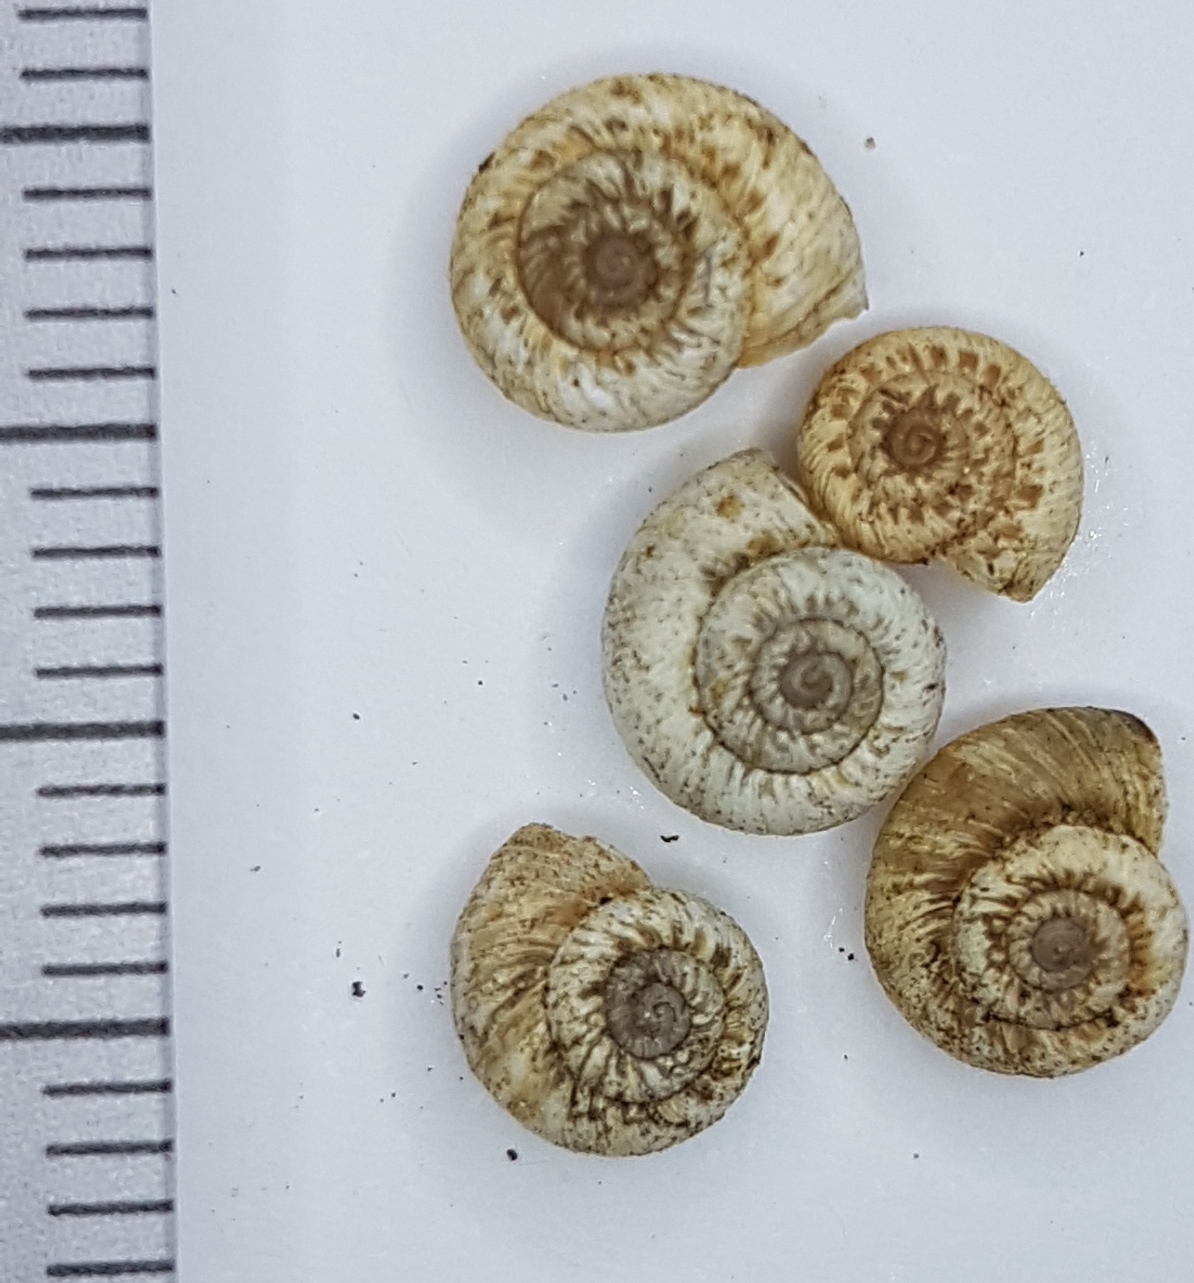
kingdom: Animalia
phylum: Mollusca
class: Gastropoda
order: Stylommatophora
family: Geomitridae
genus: Xerotricha
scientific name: Xerotricha apicina
